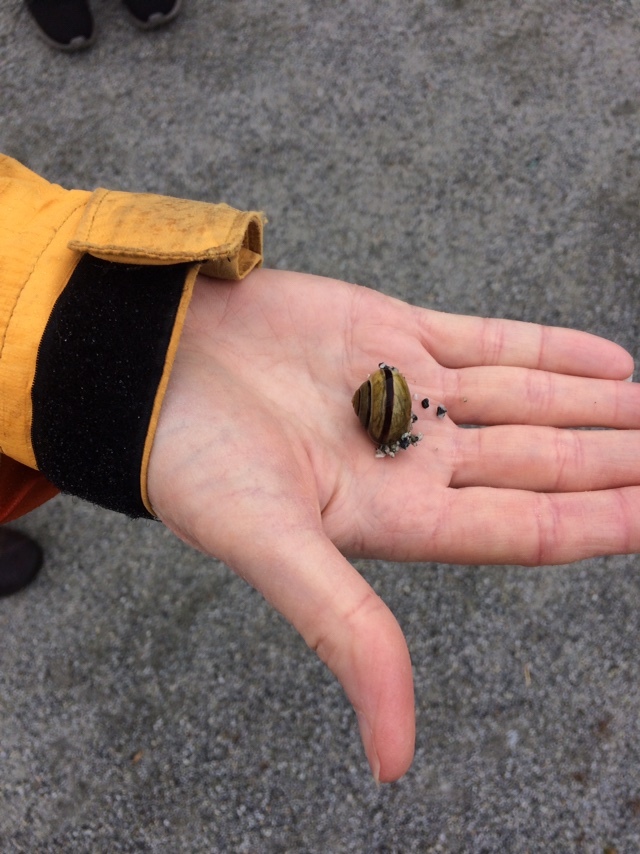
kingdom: Animalia
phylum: Mollusca
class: Gastropoda
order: Stylommatophora
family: Helicidae
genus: Cepaea
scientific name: Cepaea nemoralis
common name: Grovesnail
